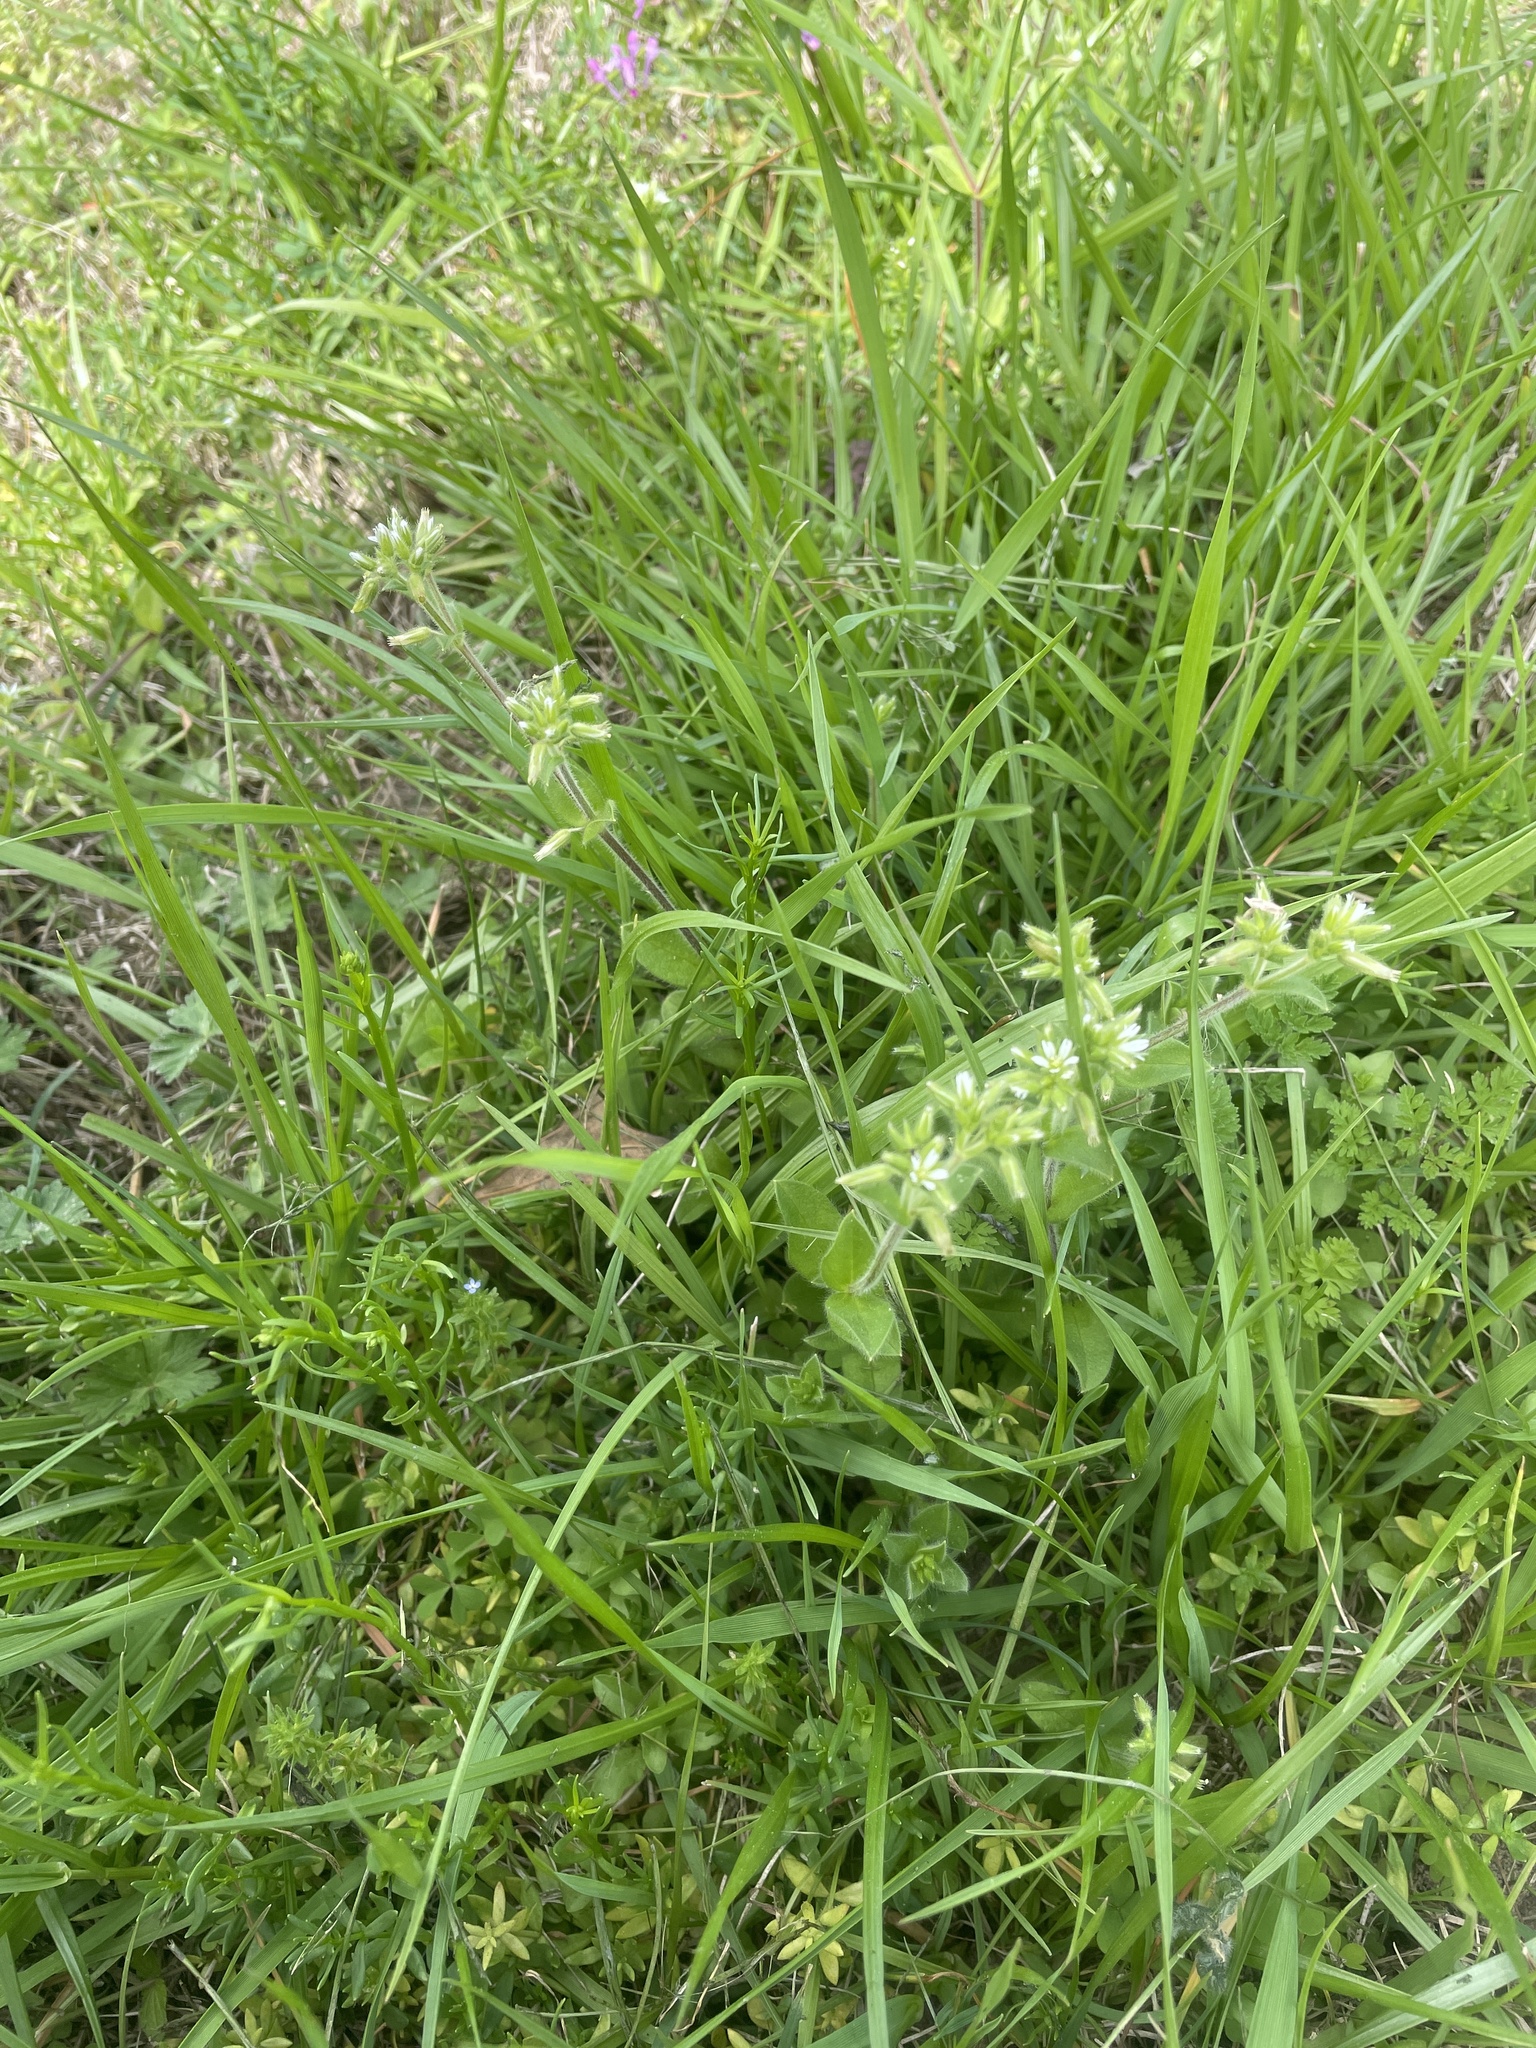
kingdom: Plantae
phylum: Tracheophyta
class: Magnoliopsida
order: Caryophyllales
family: Caryophyllaceae
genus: Cerastium
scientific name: Cerastium glomeratum
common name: Sticky chickweed
